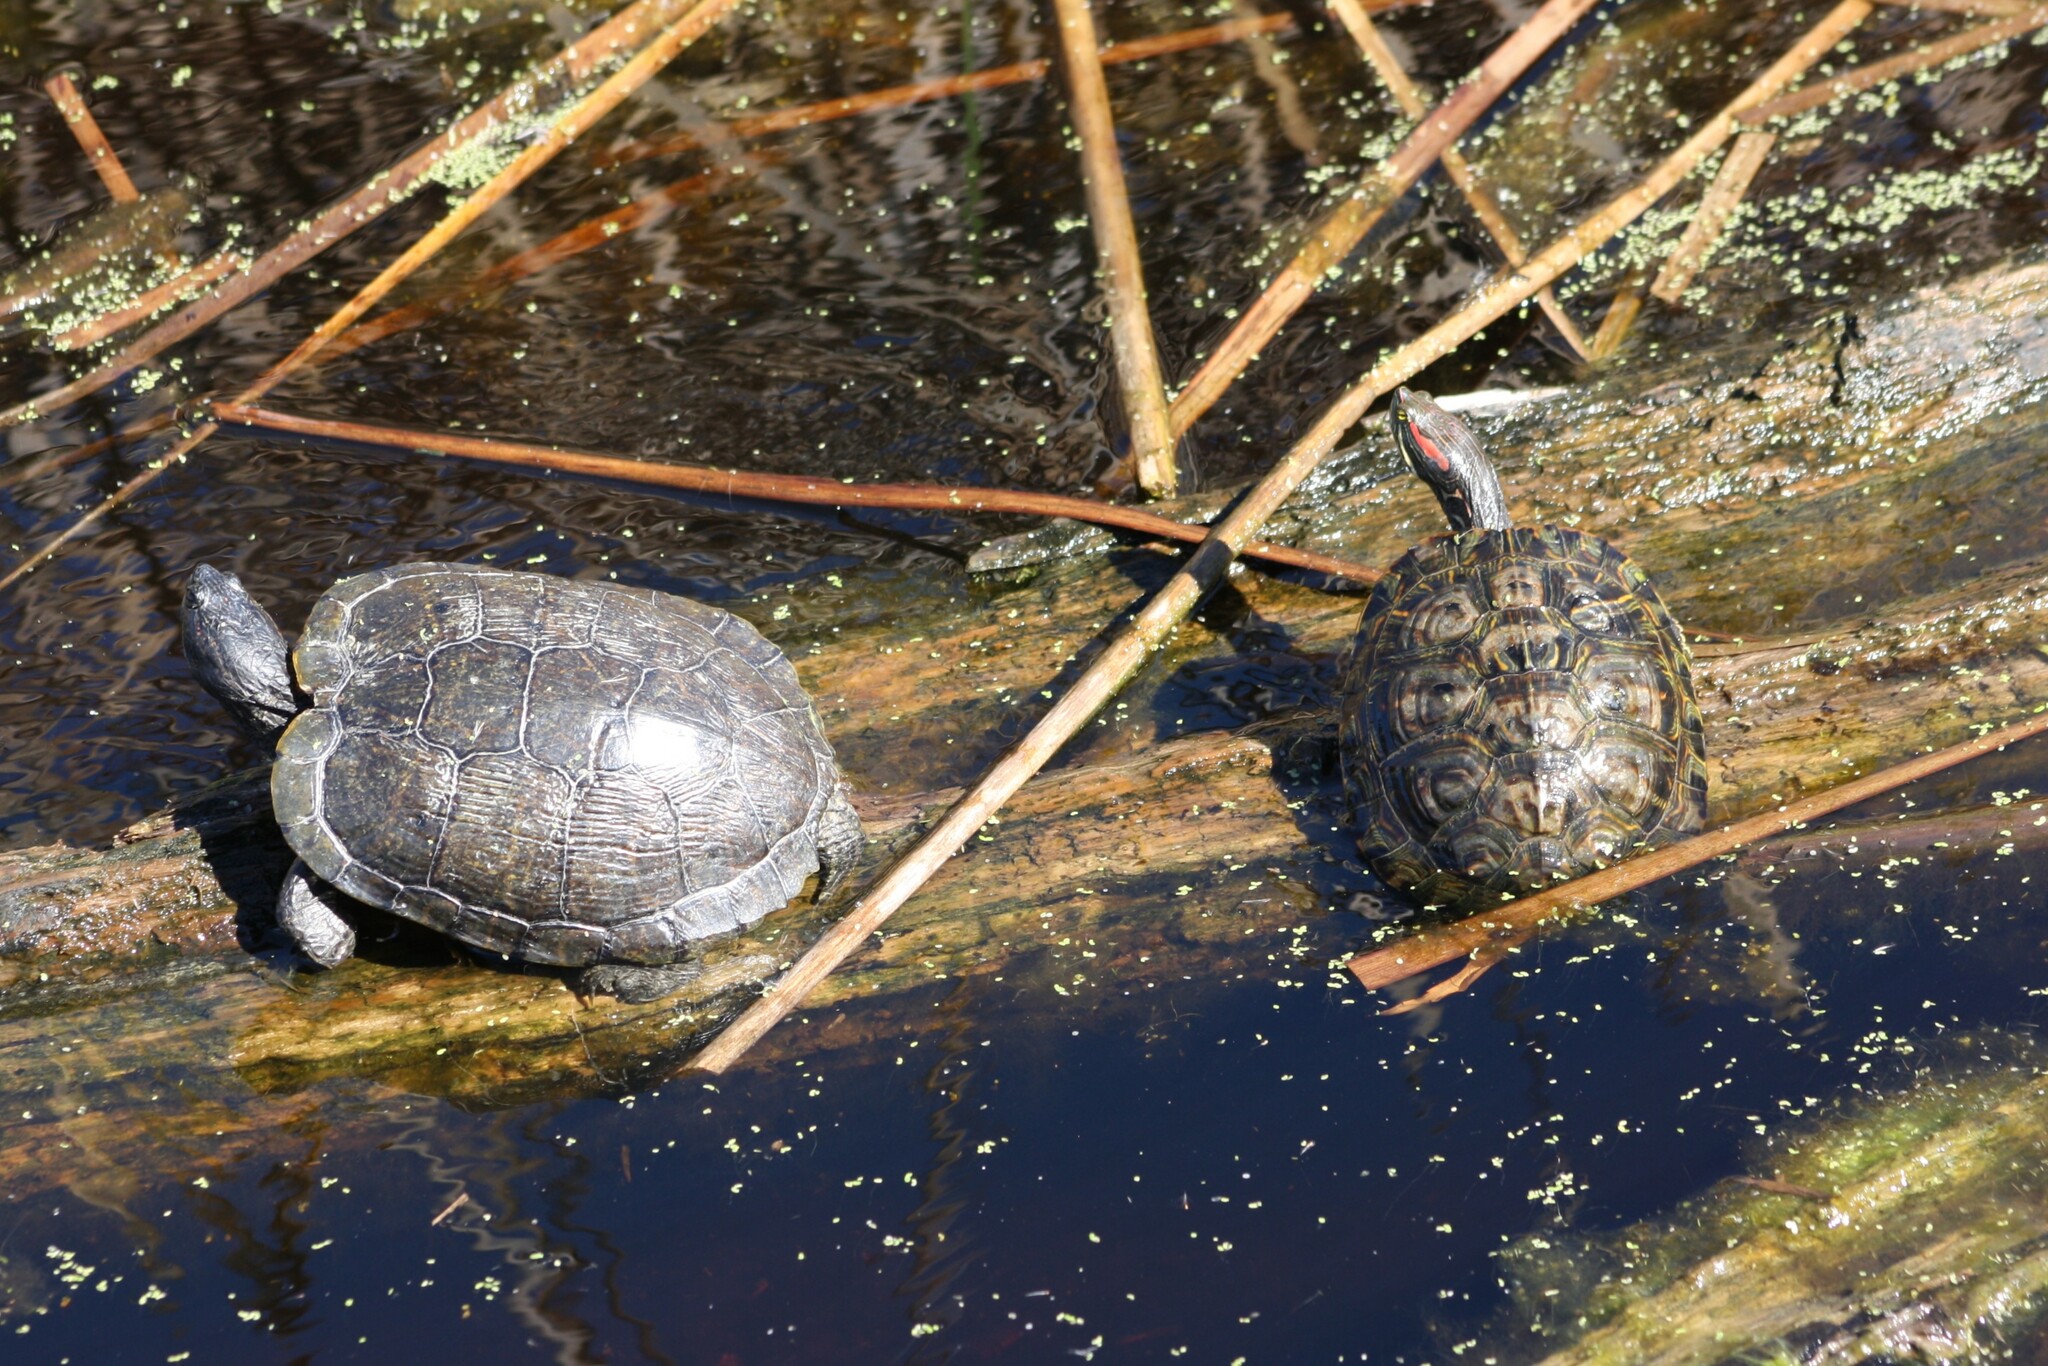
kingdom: Animalia
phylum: Chordata
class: Testudines
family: Emydidae
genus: Trachemys
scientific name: Trachemys scripta
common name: Slider
